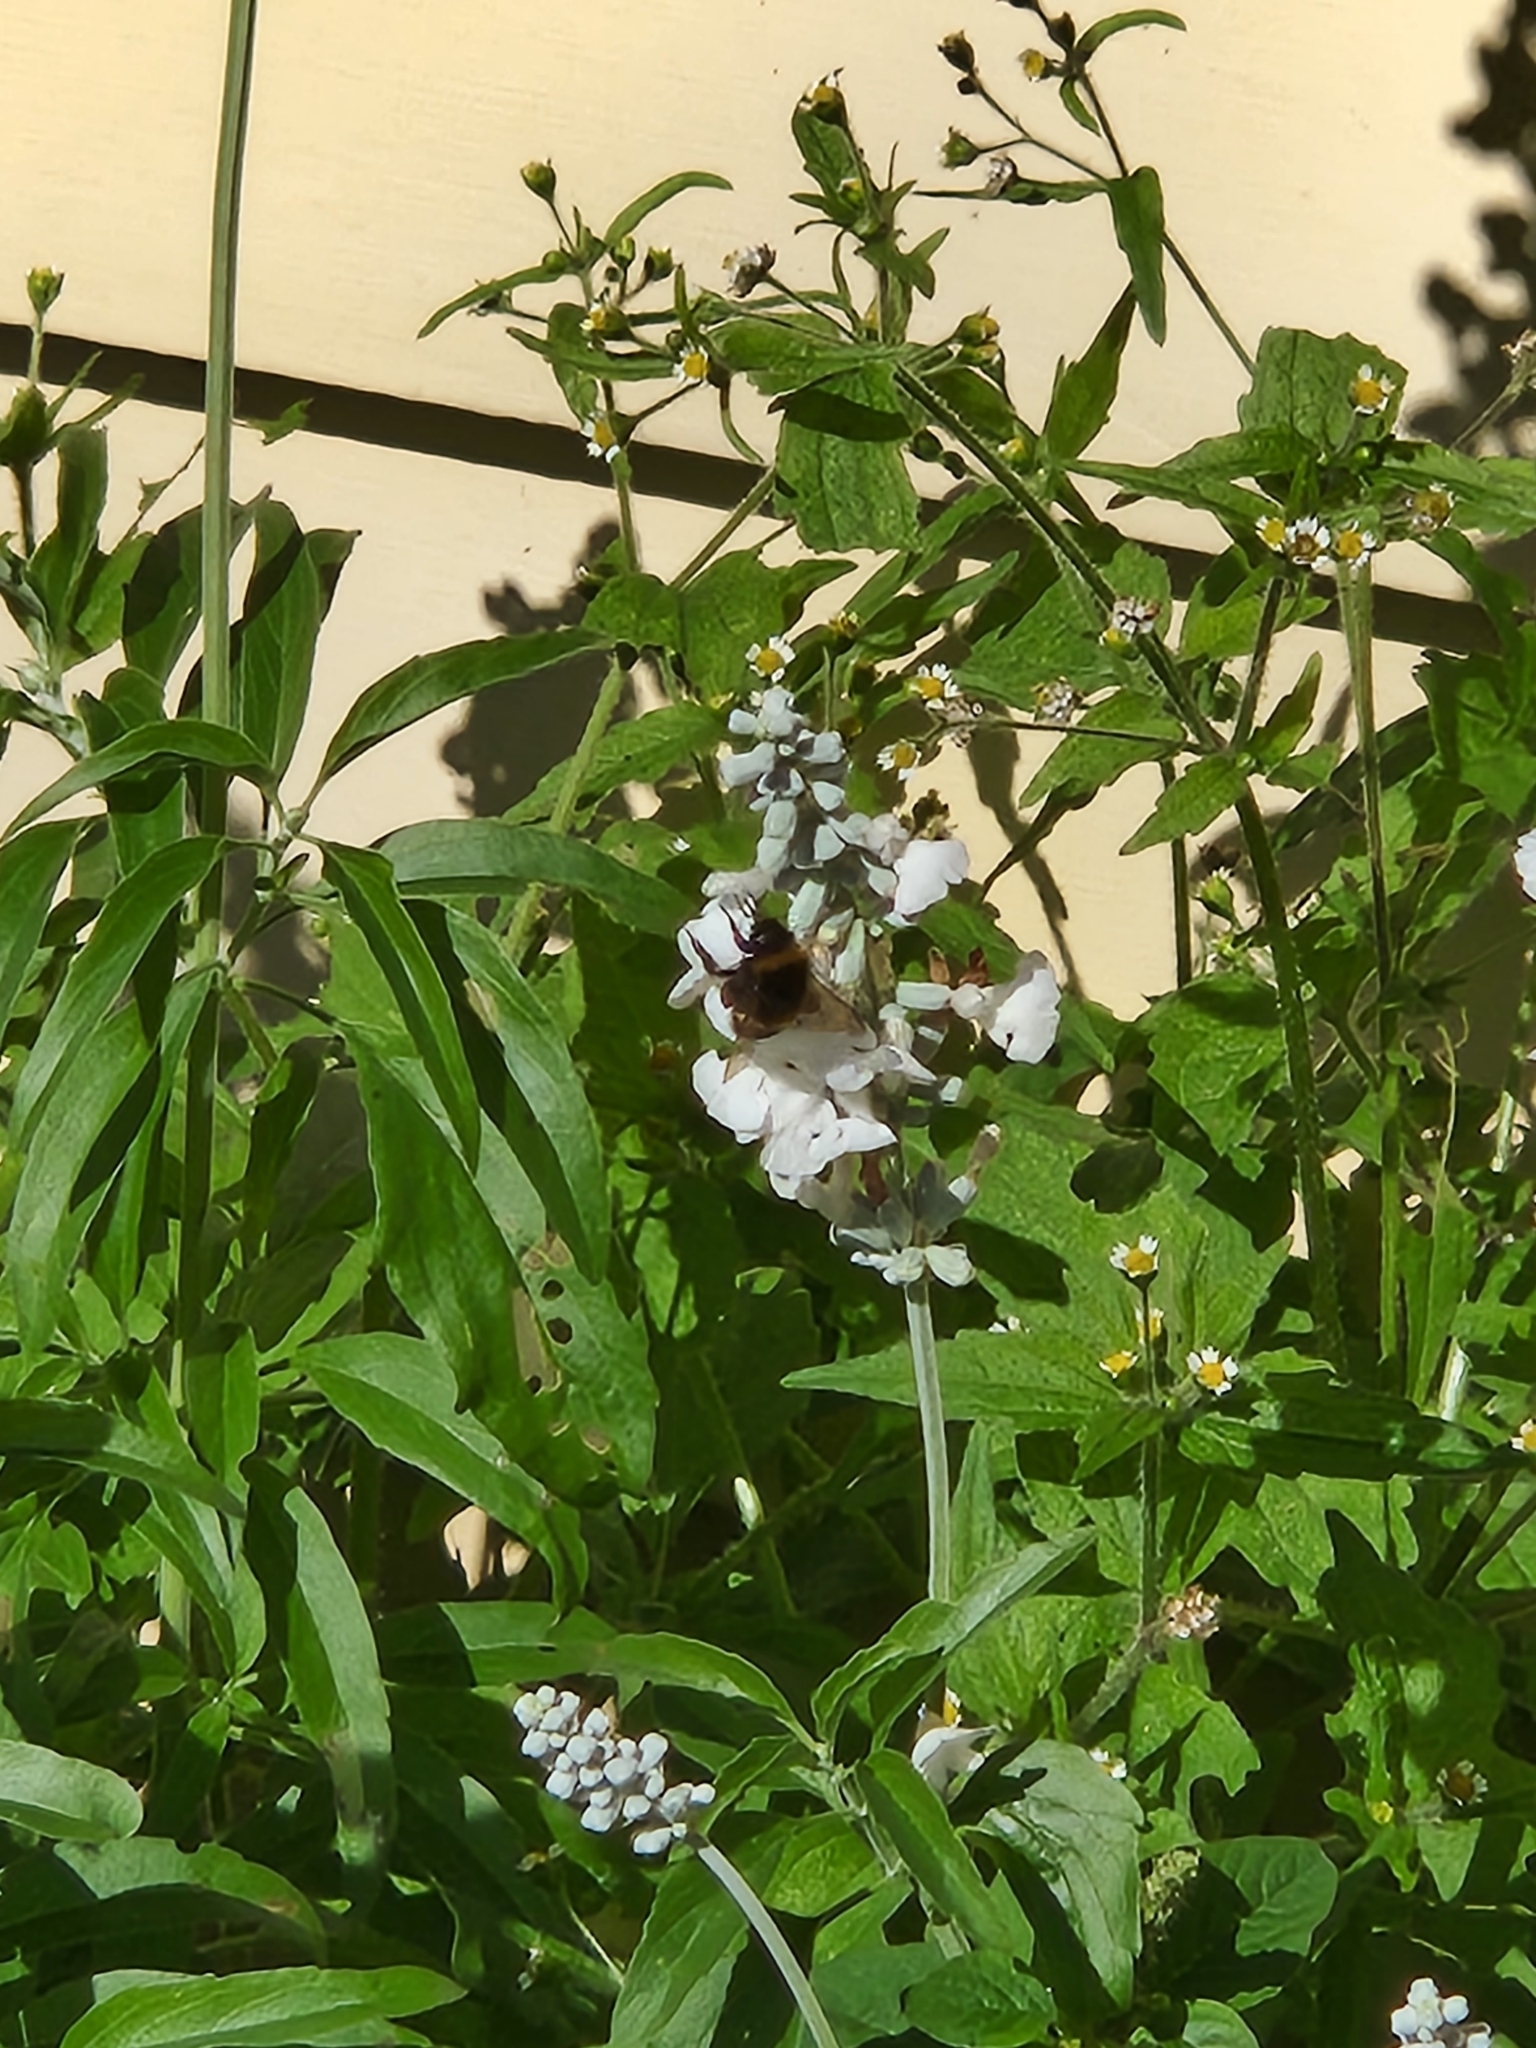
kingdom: Animalia
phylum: Arthropoda
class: Insecta
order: Hymenoptera
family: Apidae
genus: Bombus
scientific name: Bombus terrestris
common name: Buff-tailed bumblebee
